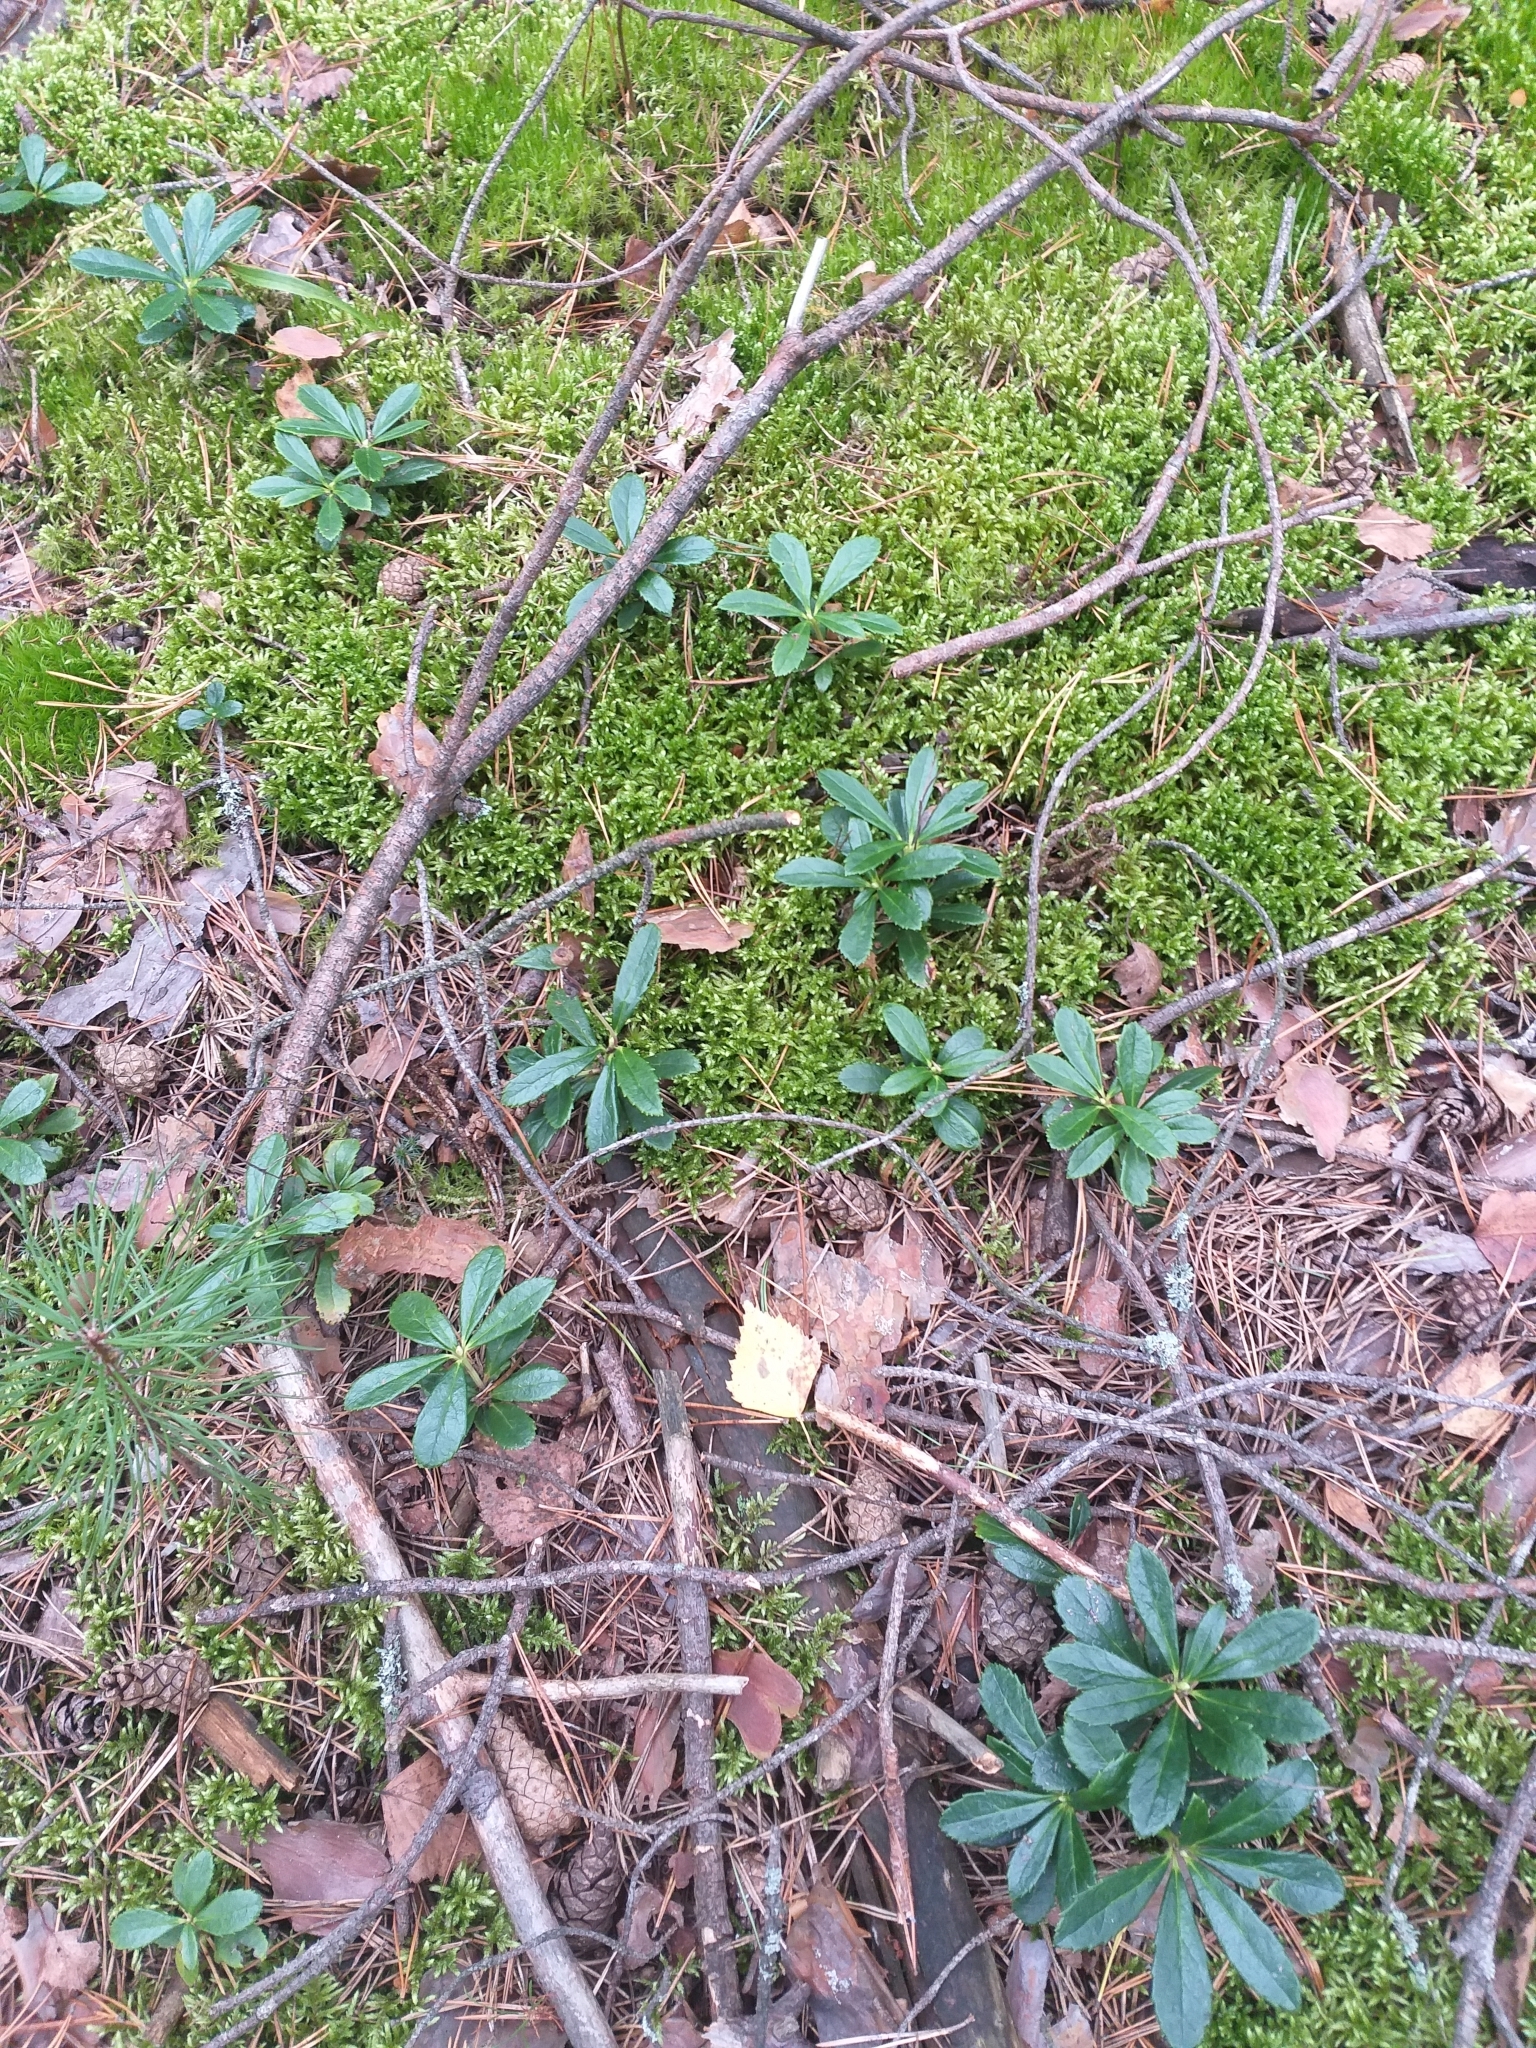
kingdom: Plantae
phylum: Tracheophyta
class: Magnoliopsida
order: Ericales
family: Ericaceae
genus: Chimaphila
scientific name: Chimaphila umbellata
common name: Pipsissewa
